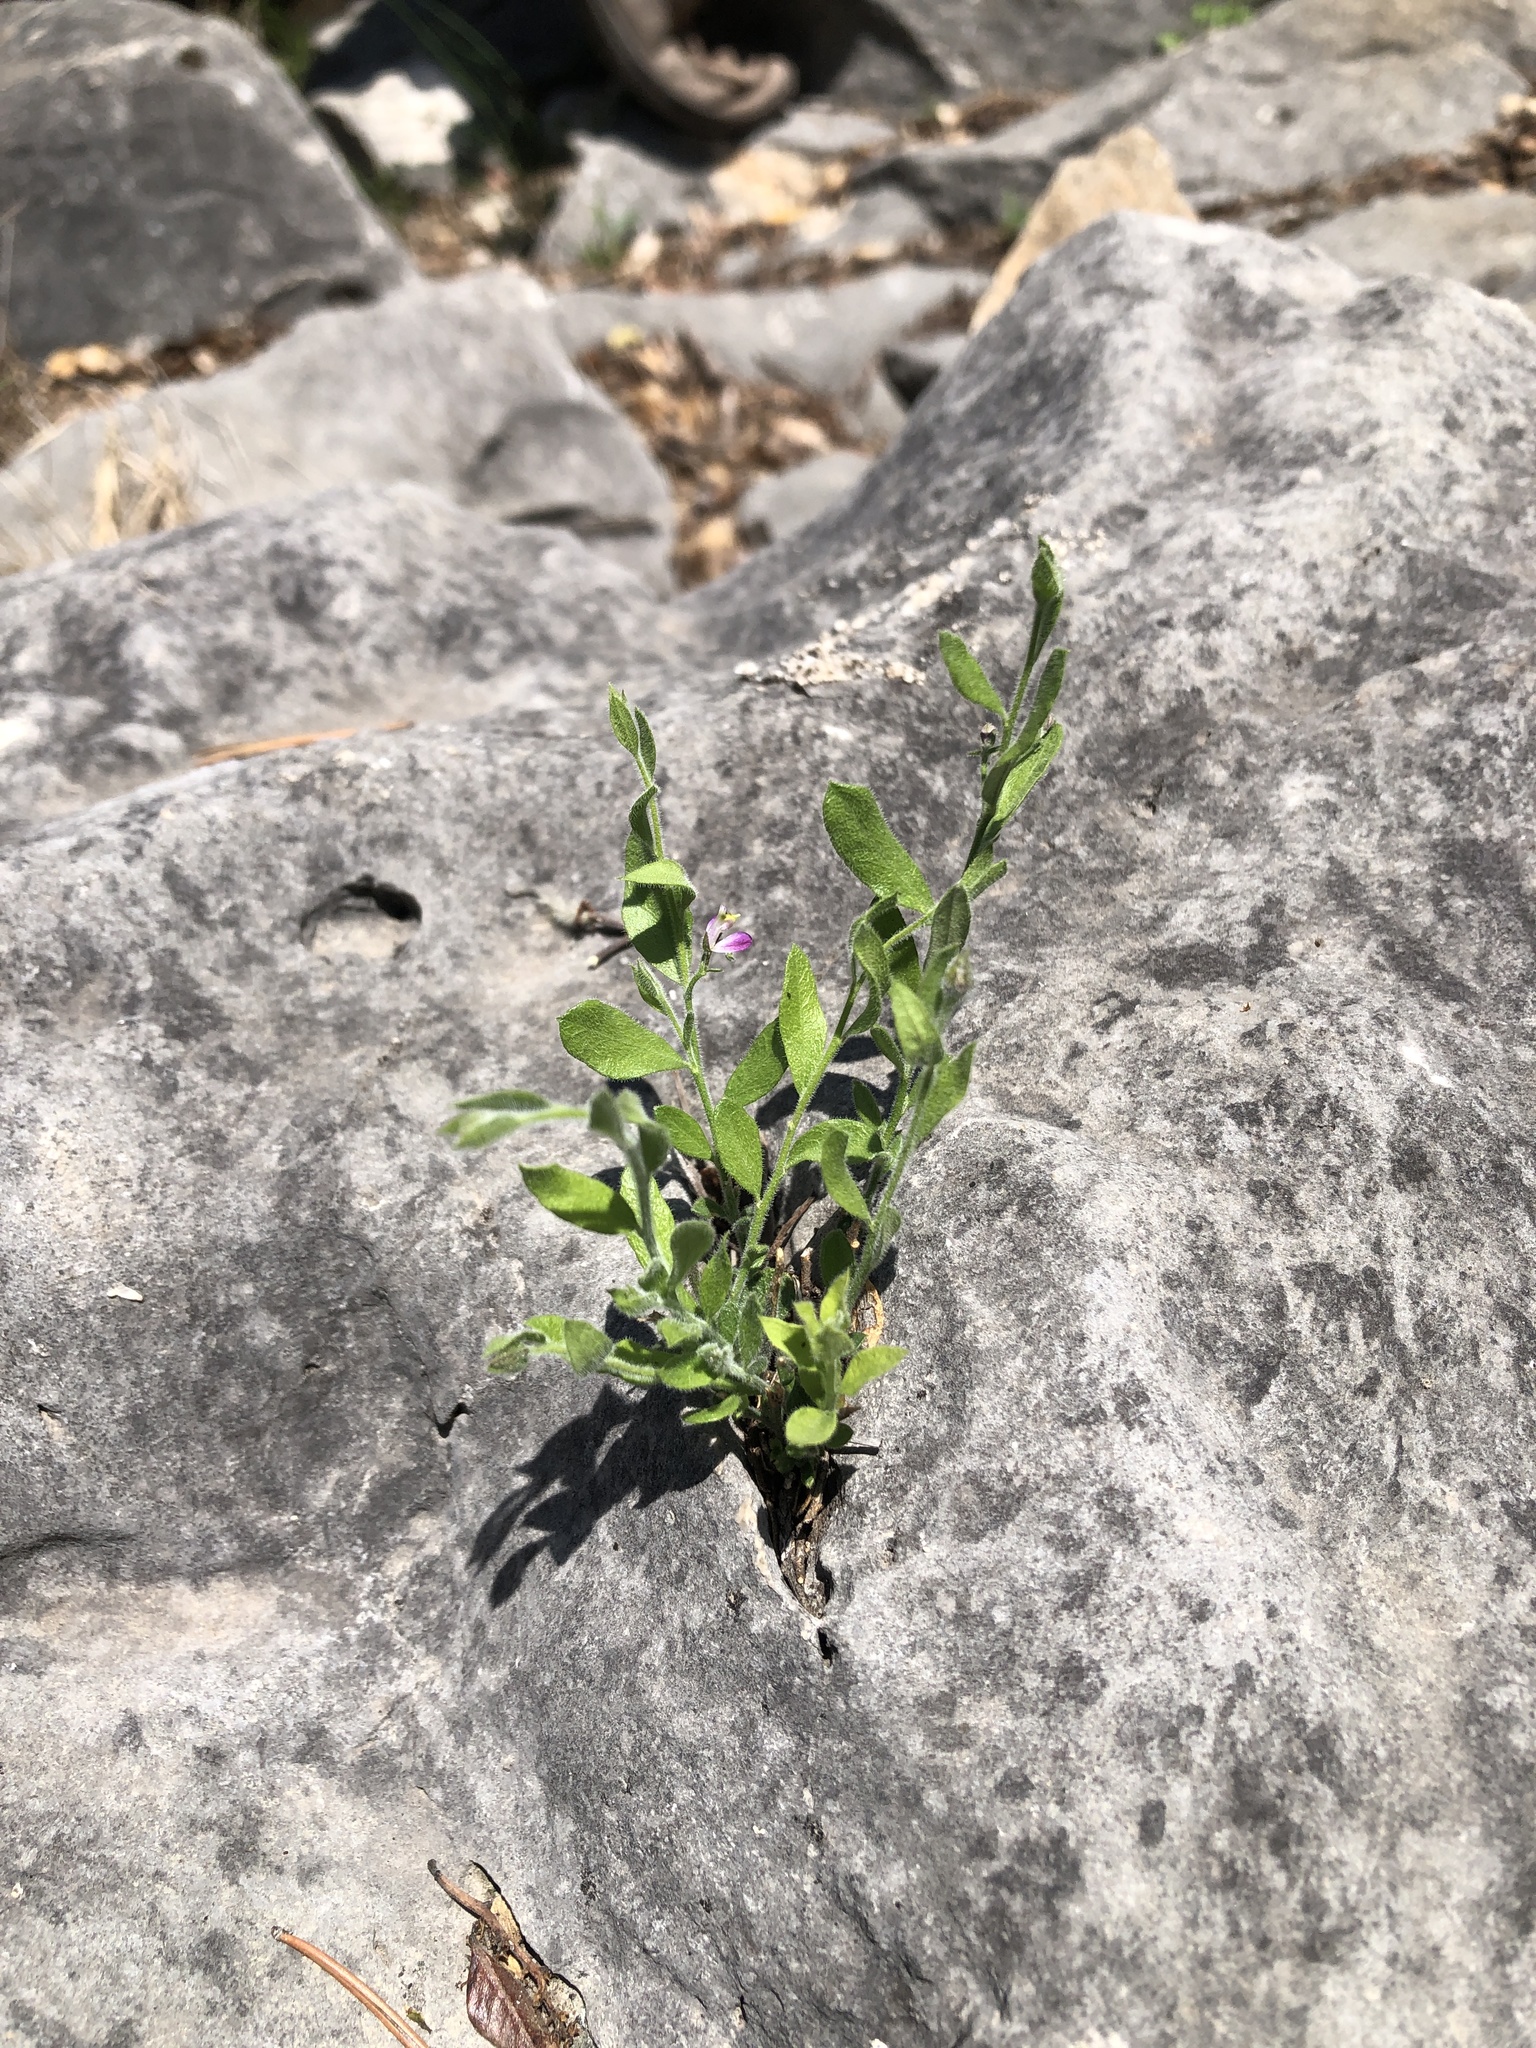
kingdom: Plantae
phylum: Tracheophyta
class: Magnoliopsida
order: Fabales
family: Polygalaceae
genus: Rhinotropis
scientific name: Rhinotropis lindheimeri
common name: Shrubby milkwort
